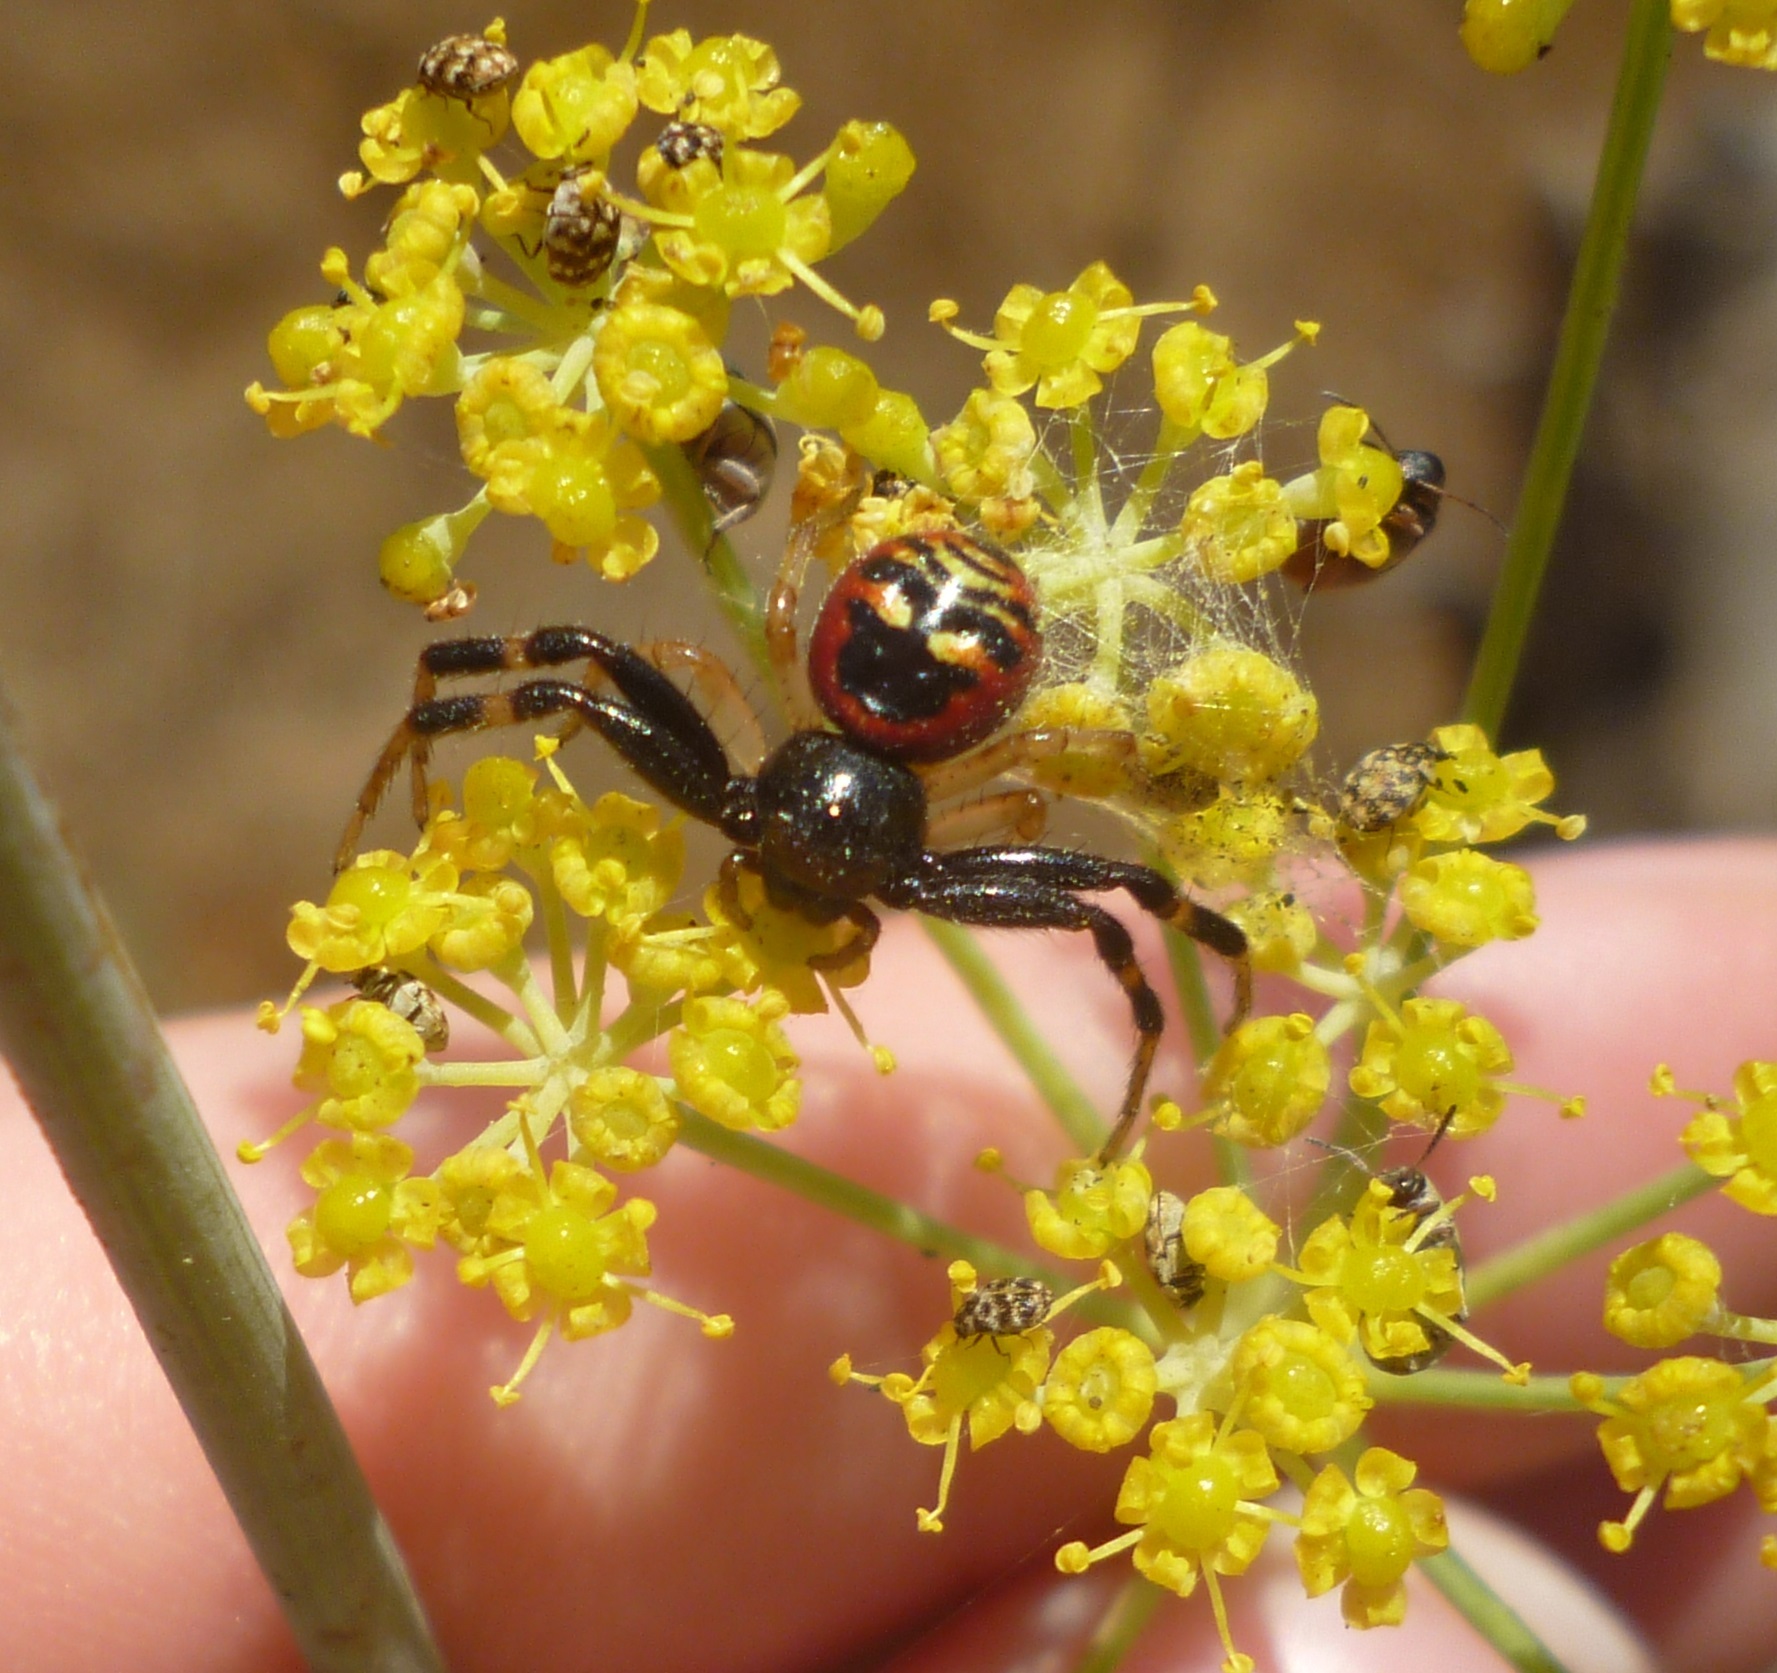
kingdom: Animalia
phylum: Arthropoda
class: Arachnida
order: Araneae
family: Thomisidae
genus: Synema
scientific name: Synema globosum
